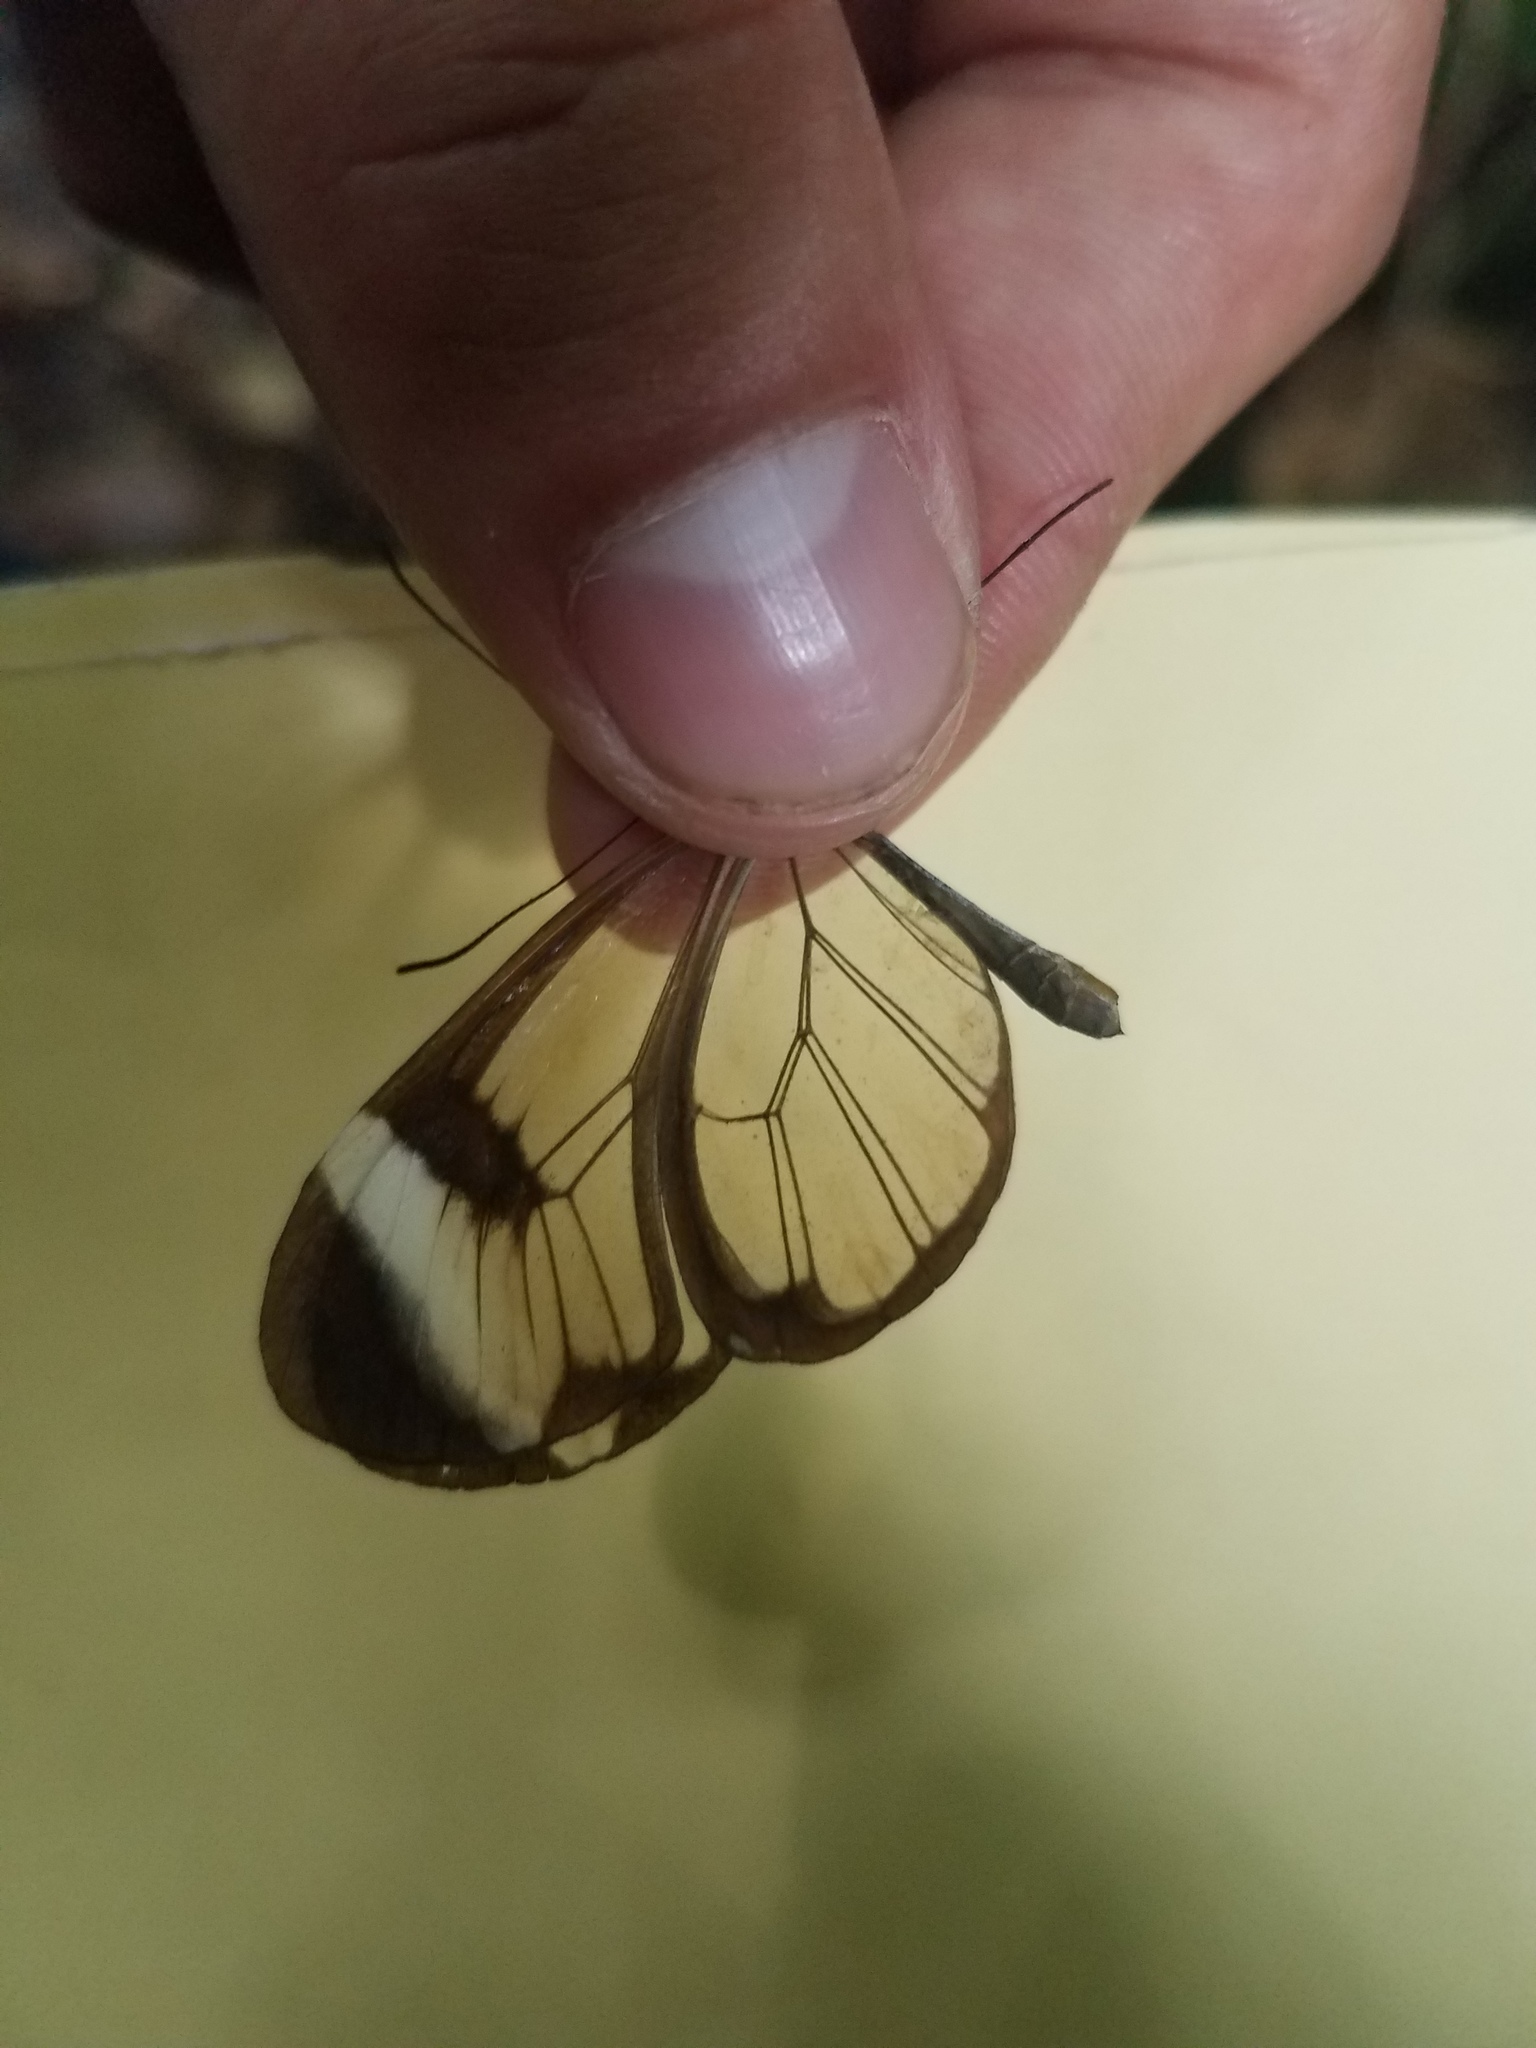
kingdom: Animalia
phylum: Arthropoda
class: Insecta
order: Lepidoptera
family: Nymphalidae
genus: Greta
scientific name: Greta morgane
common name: Thick-tipped greta
